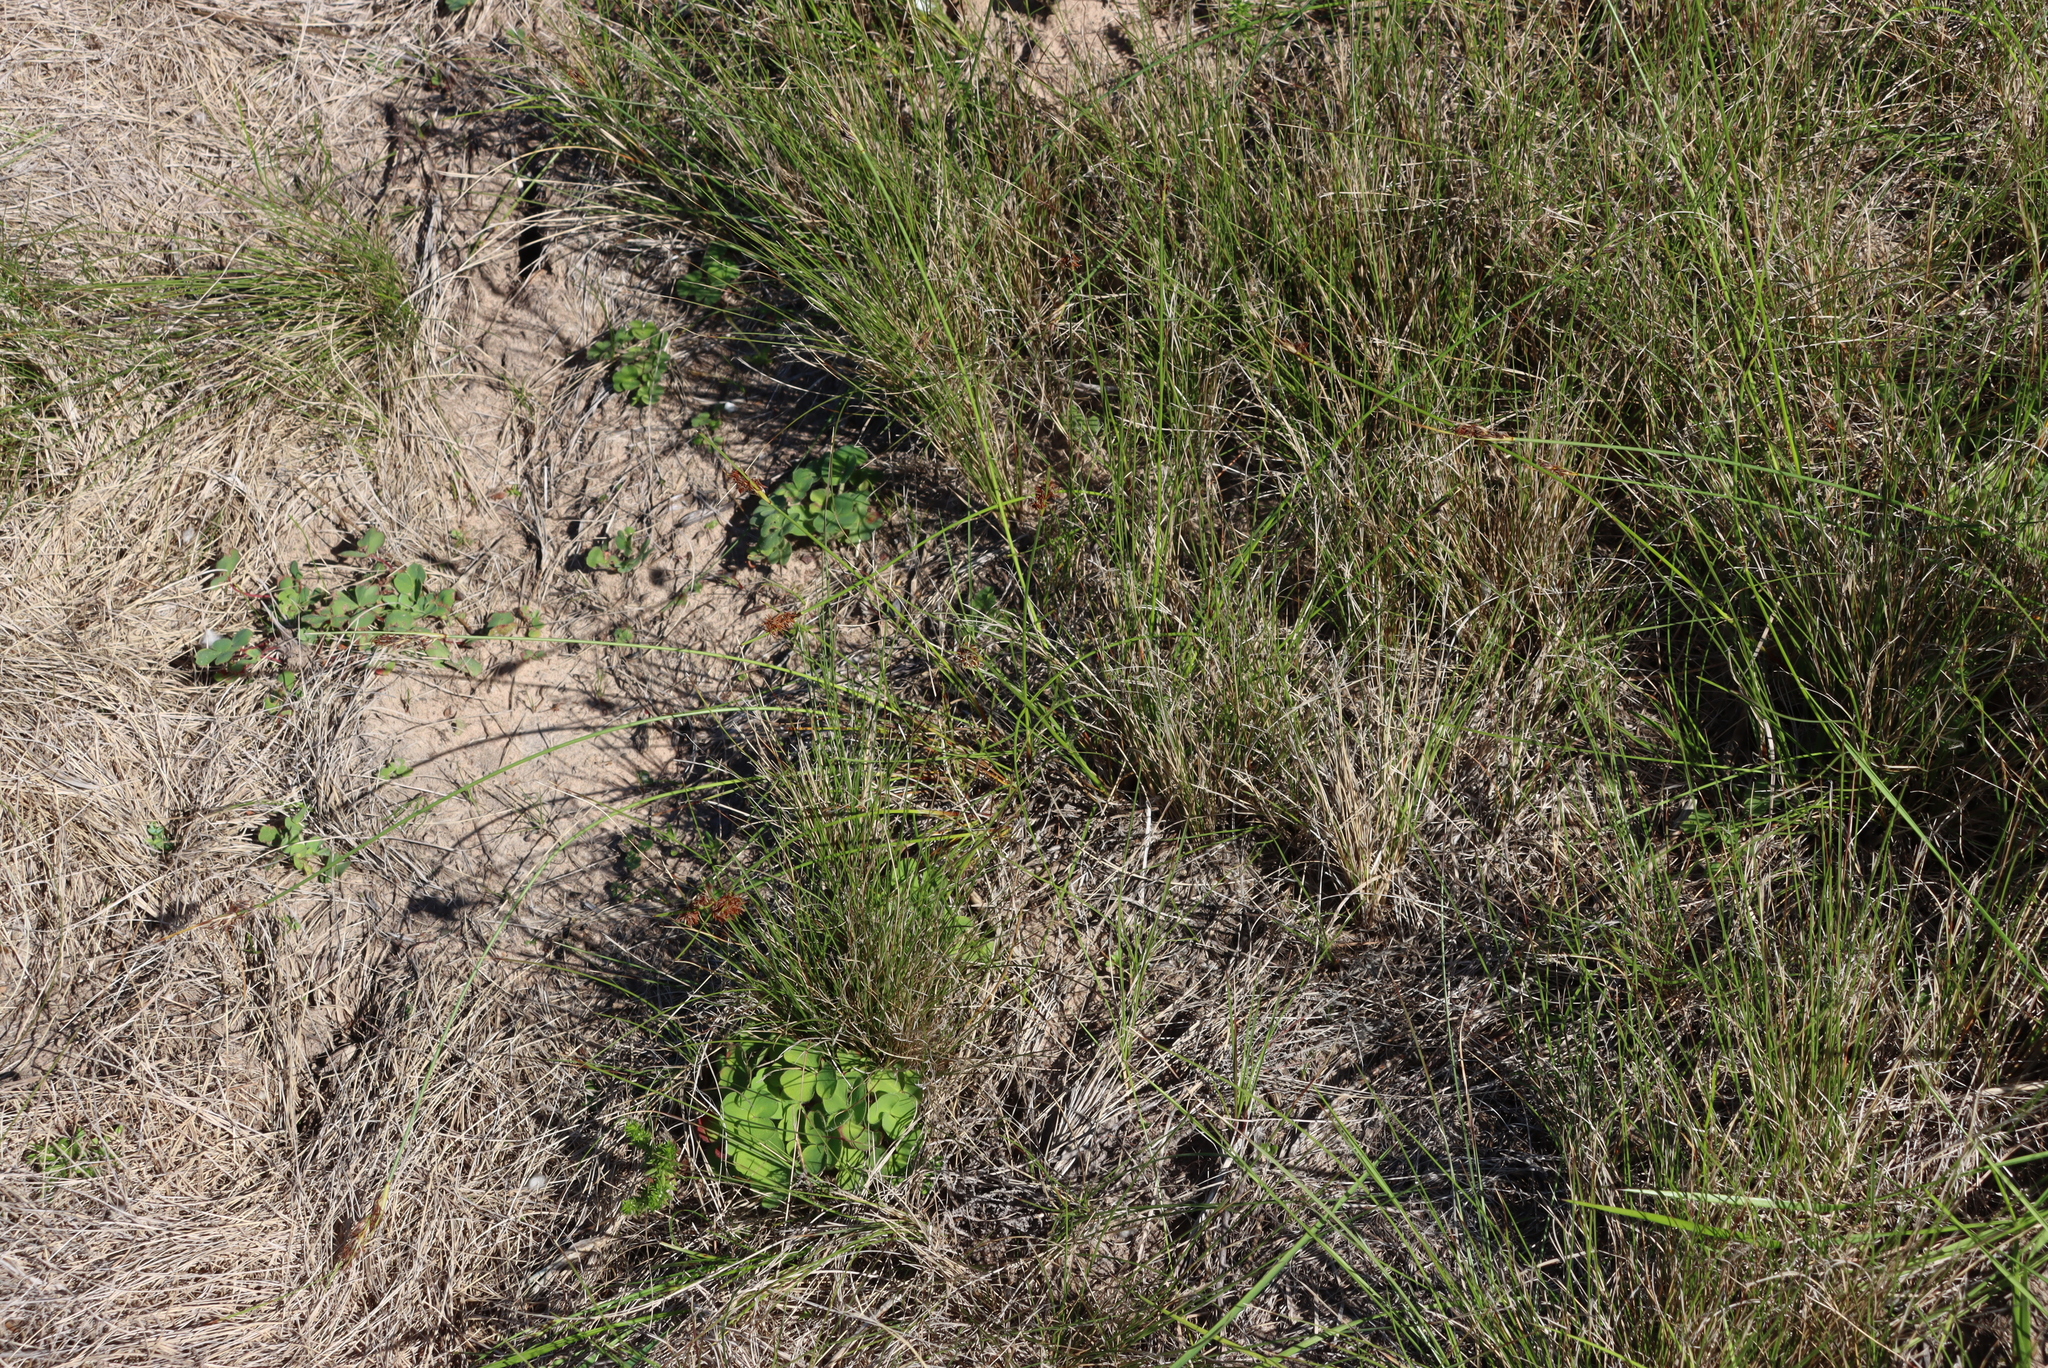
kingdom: Plantae
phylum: Tracheophyta
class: Liliopsida
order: Poales
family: Cyperaceae
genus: Schoenus
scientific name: Schoenus auritus
